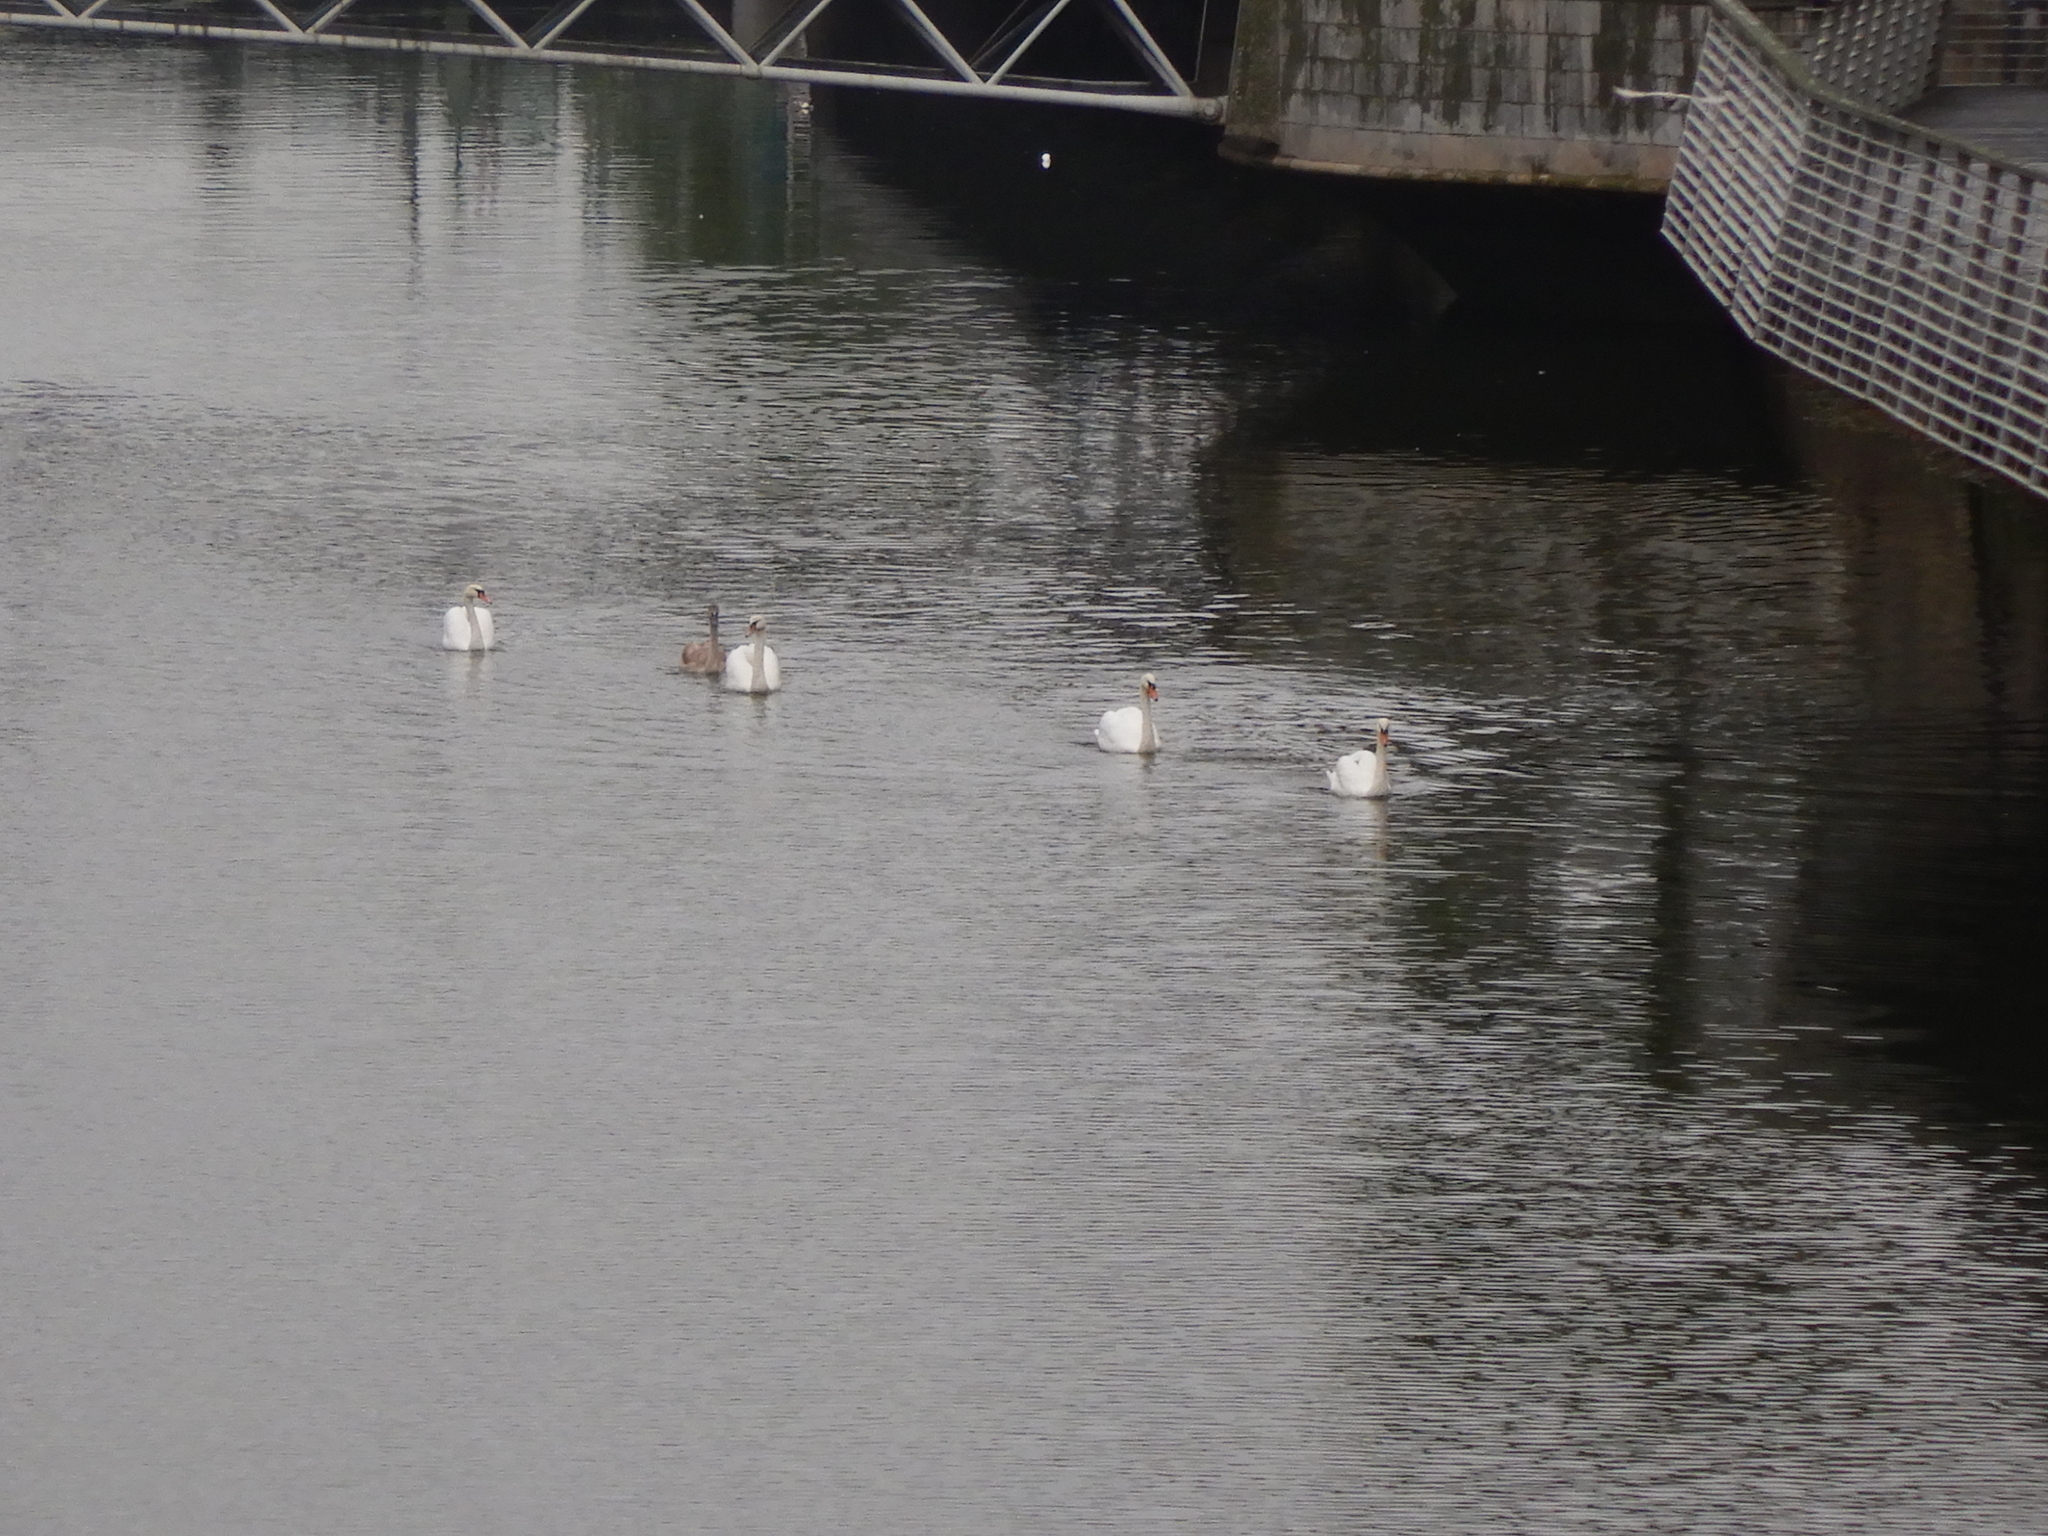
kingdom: Animalia
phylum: Chordata
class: Aves
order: Anseriformes
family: Anatidae
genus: Cygnus
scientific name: Cygnus olor
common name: Mute swan
